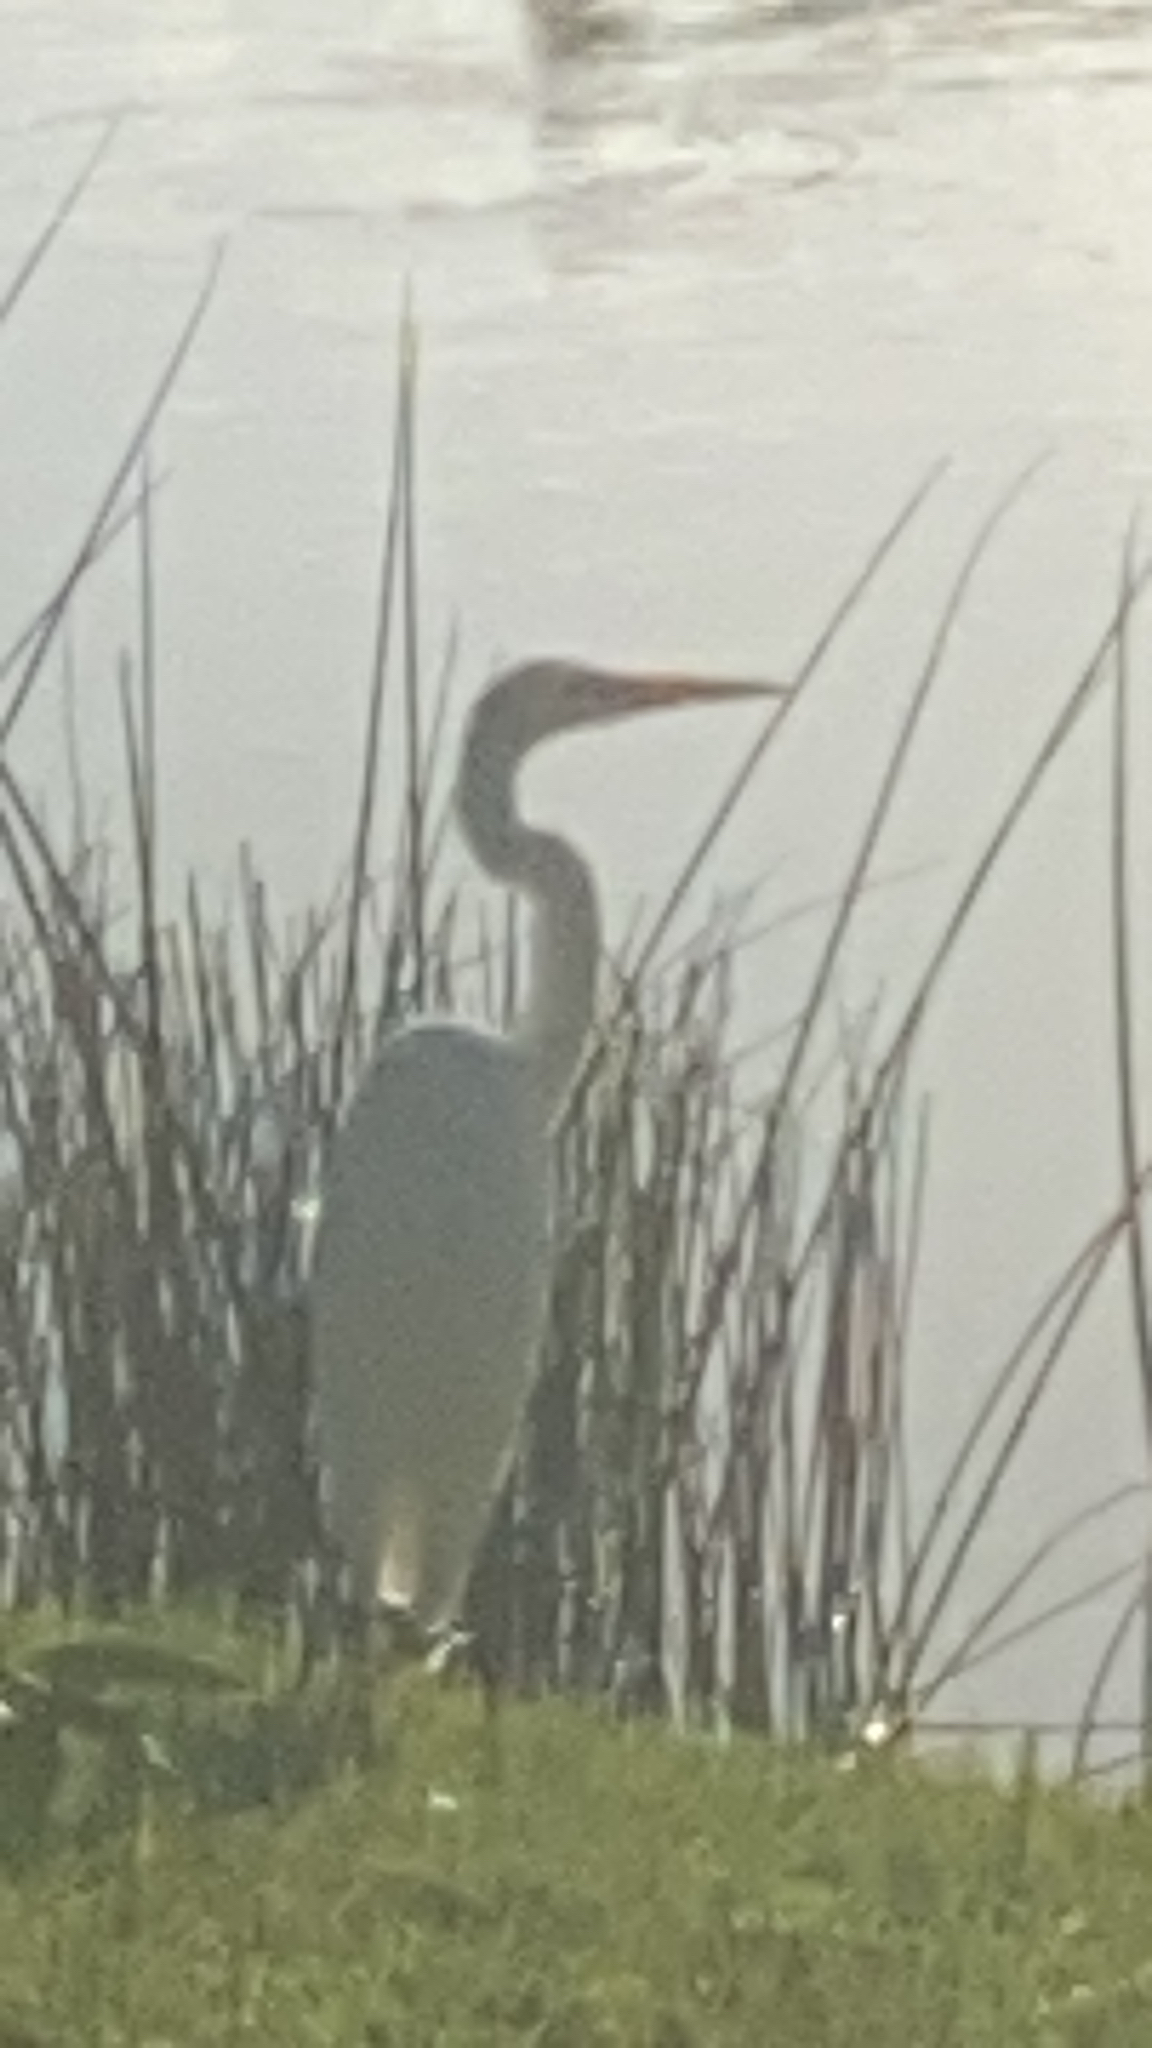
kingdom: Animalia
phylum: Chordata
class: Aves
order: Pelecaniformes
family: Ardeidae
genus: Ardea
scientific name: Ardea alba
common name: Great egret
